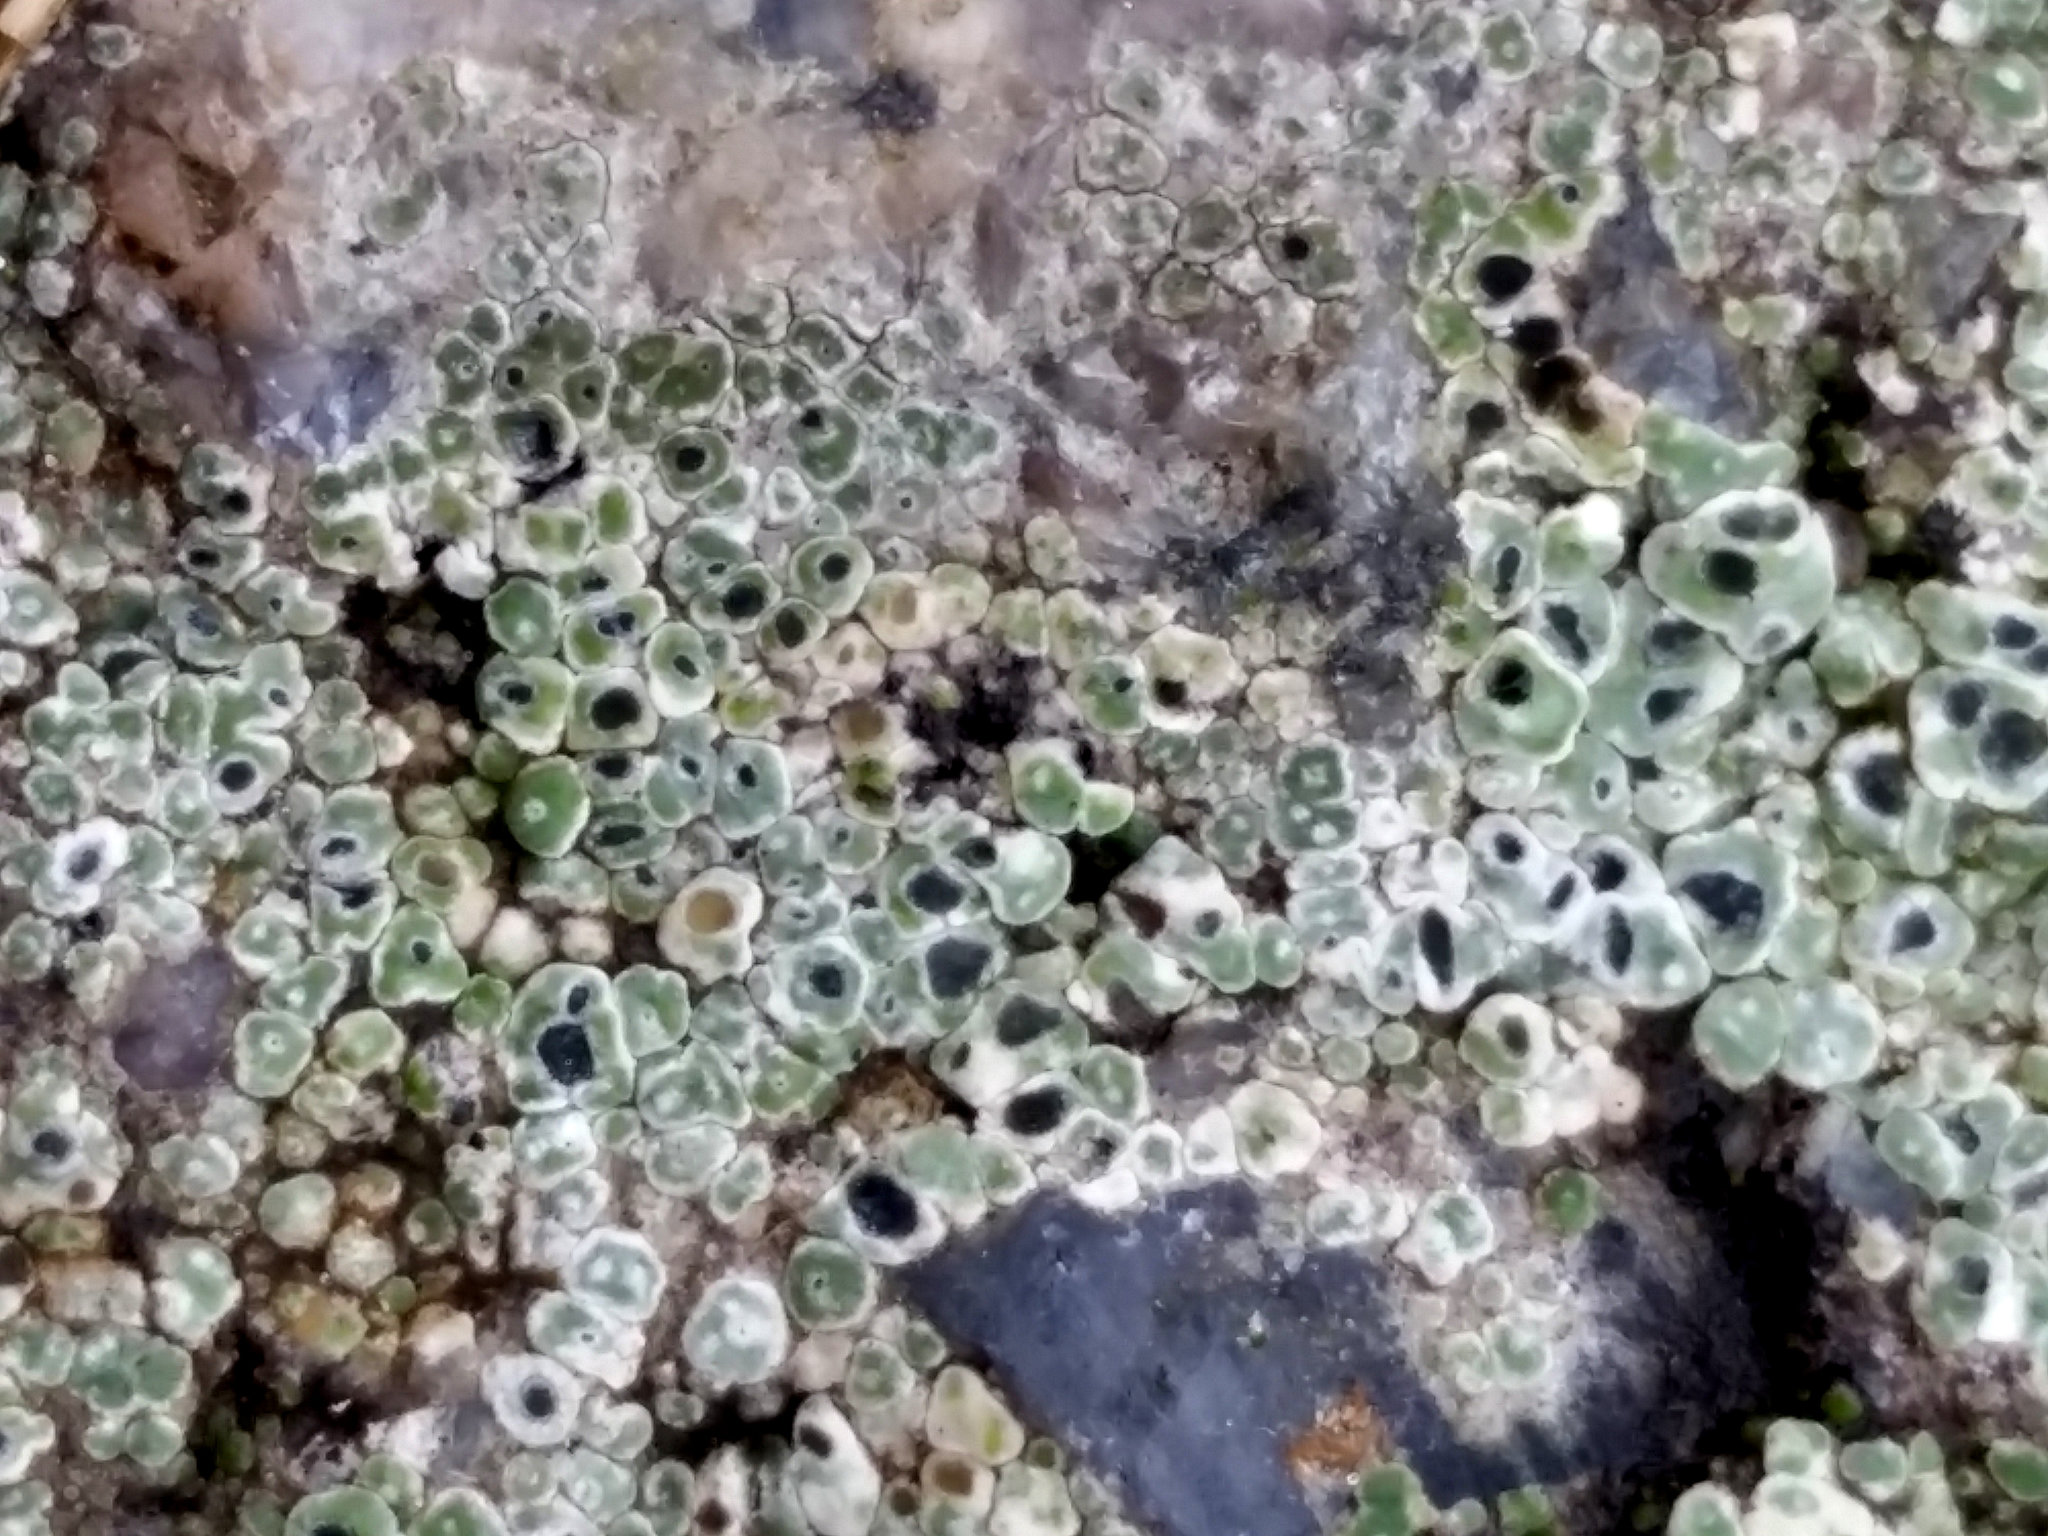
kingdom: Fungi
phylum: Ascomycota
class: Lecanoromycetes
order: Pertusariales
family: Megasporaceae
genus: Circinaria
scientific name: Circinaria contorta
